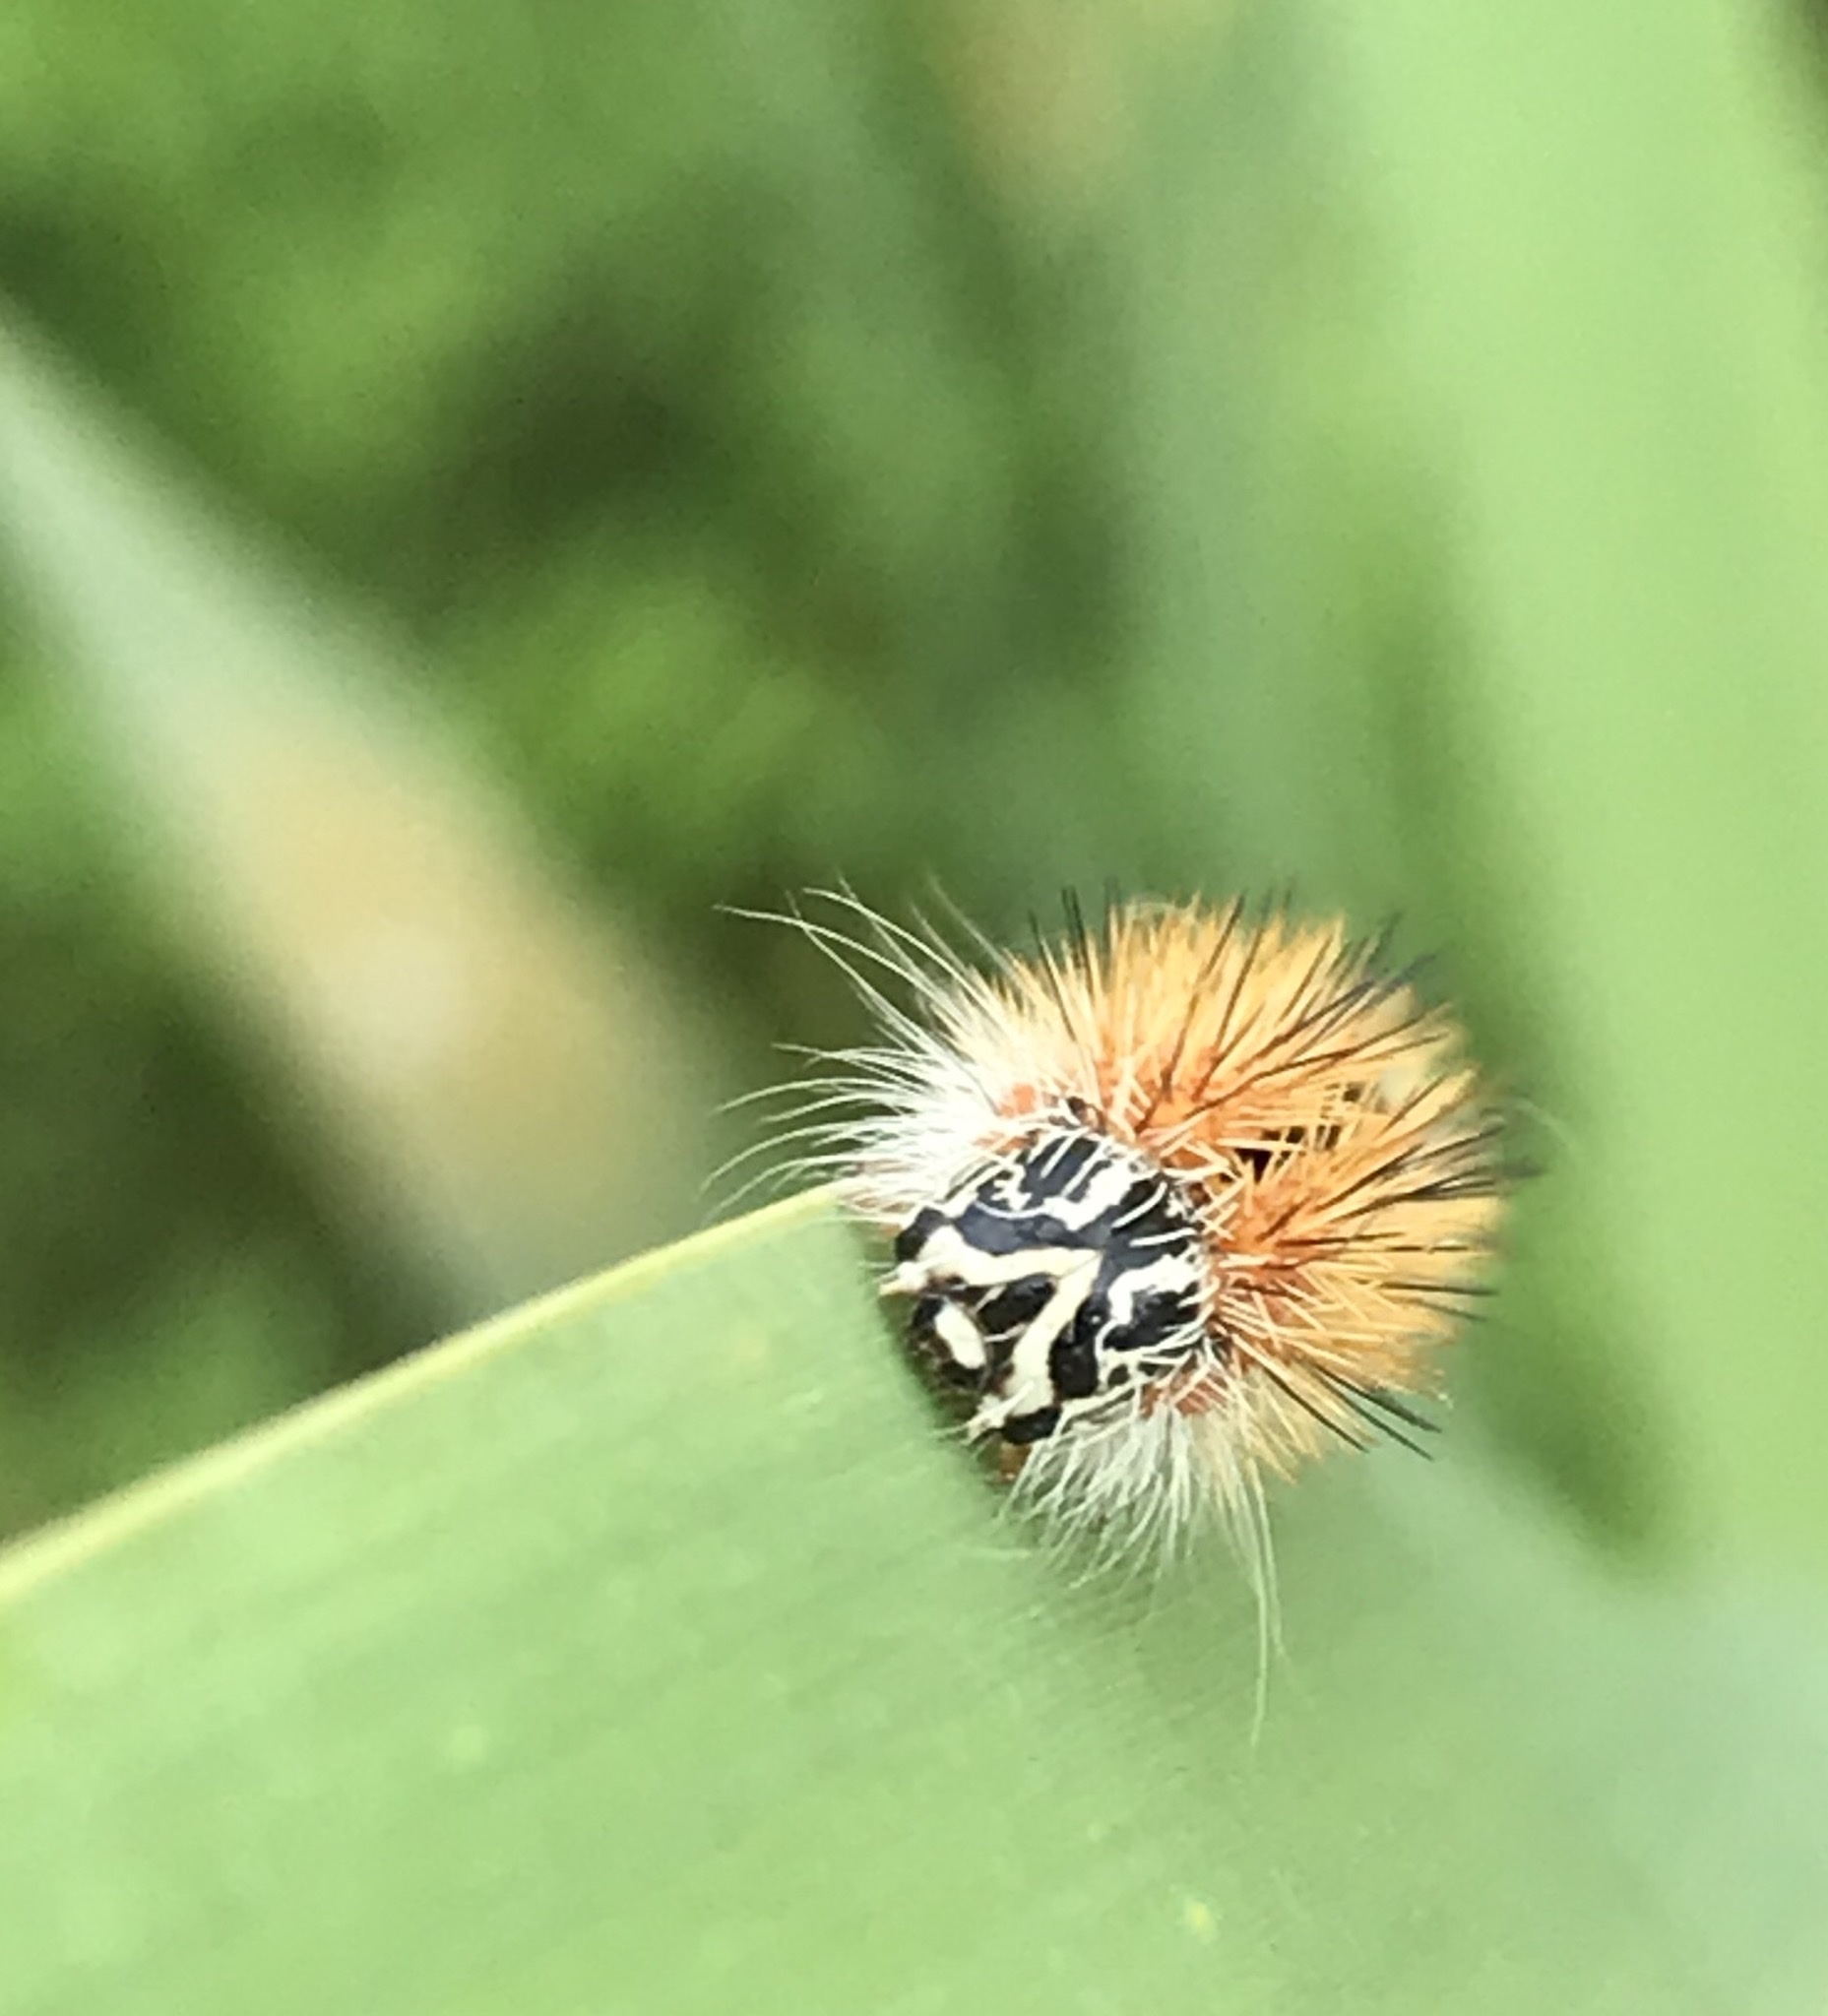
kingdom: Animalia
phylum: Arthropoda
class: Insecta
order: Lepidoptera
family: Noctuidae
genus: Acronicta
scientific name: Acronicta insularis
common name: Henry's marsh moth
